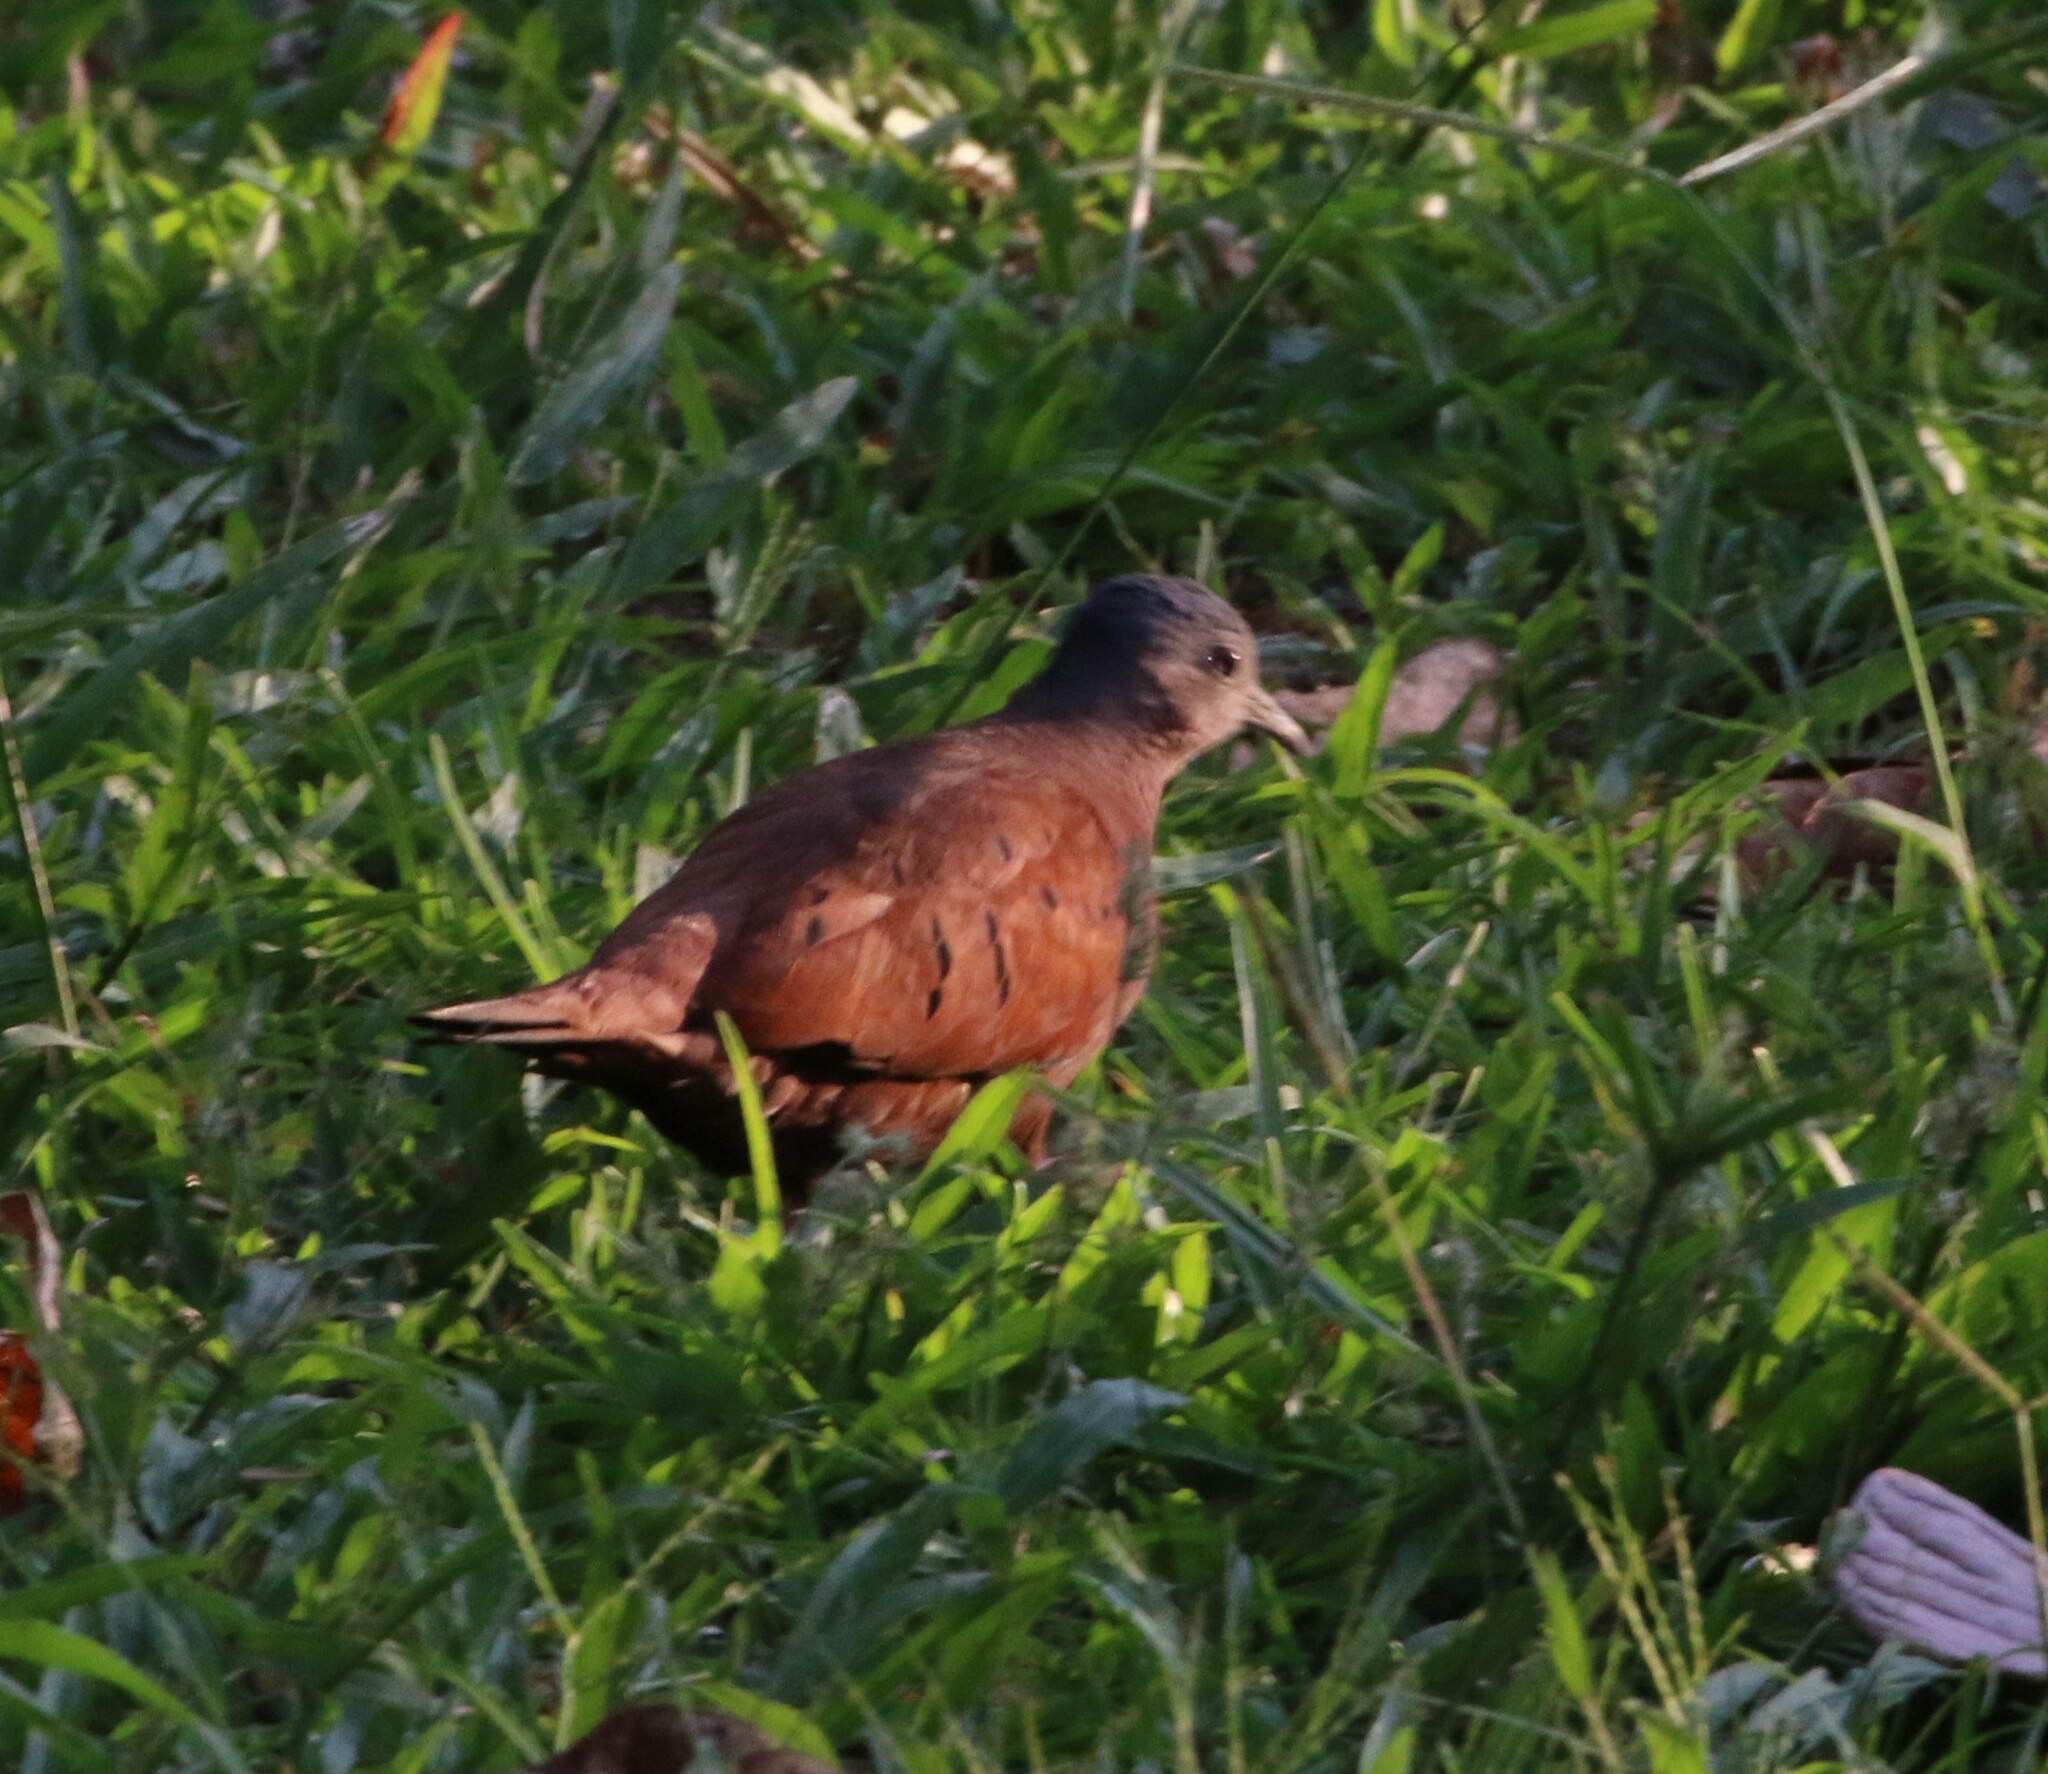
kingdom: Animalia
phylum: Chordata
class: Aves
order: Columbiformes
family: Columbidae
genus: Columbina
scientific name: Columbina talpacoti
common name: Ruddy ground dove
